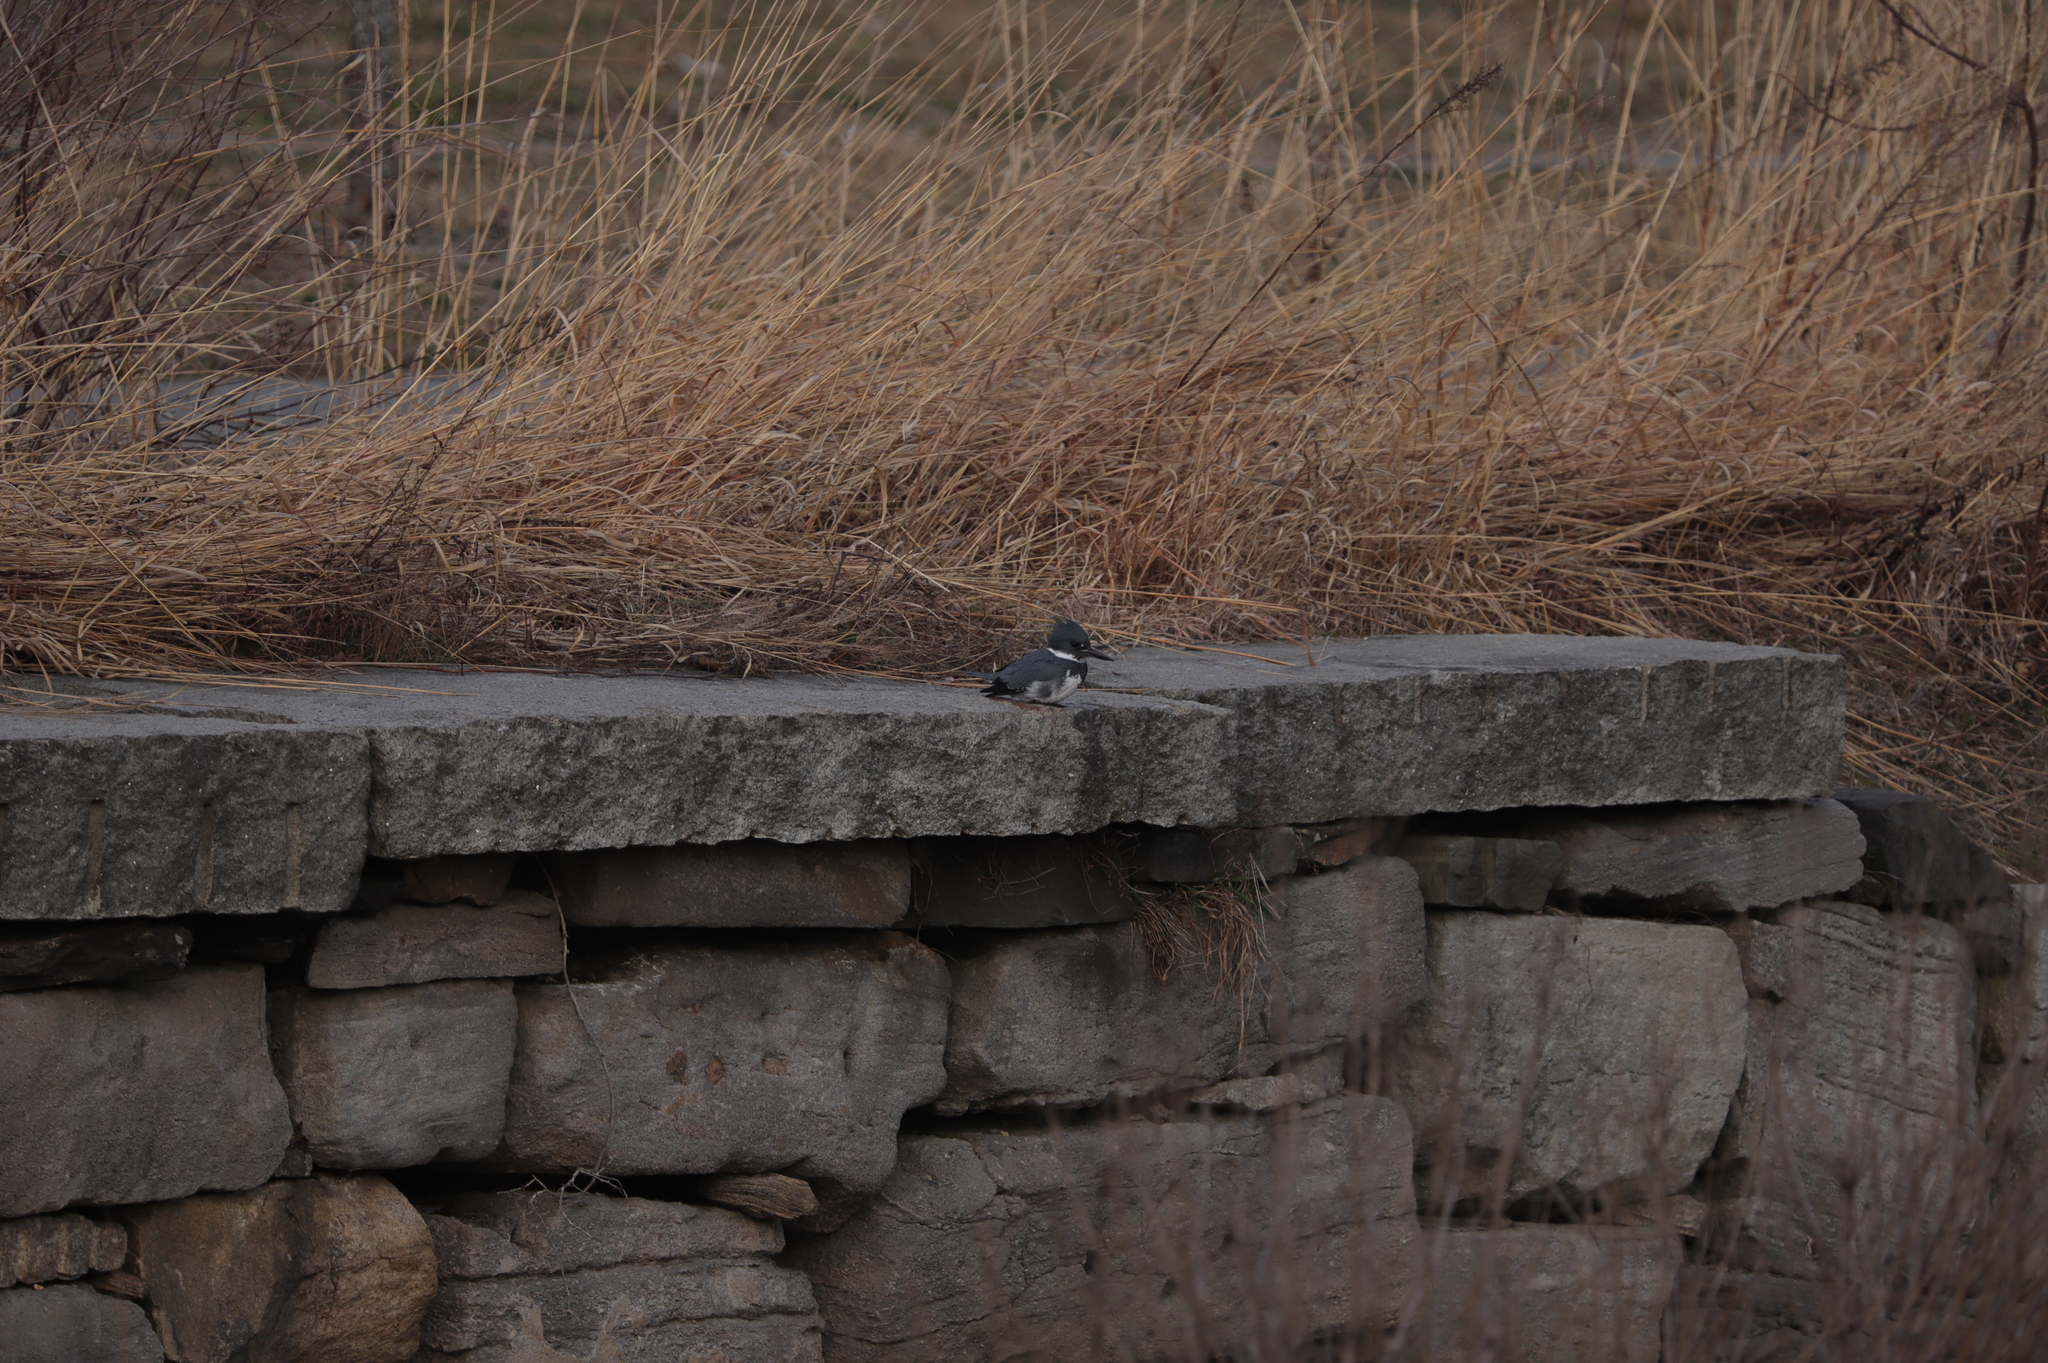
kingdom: Animalia
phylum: Chordata
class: Aves
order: Coraciiformes
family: Alcedinidae
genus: Megaceryle
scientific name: Megaceryle alcyon
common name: Belted kingfisher
